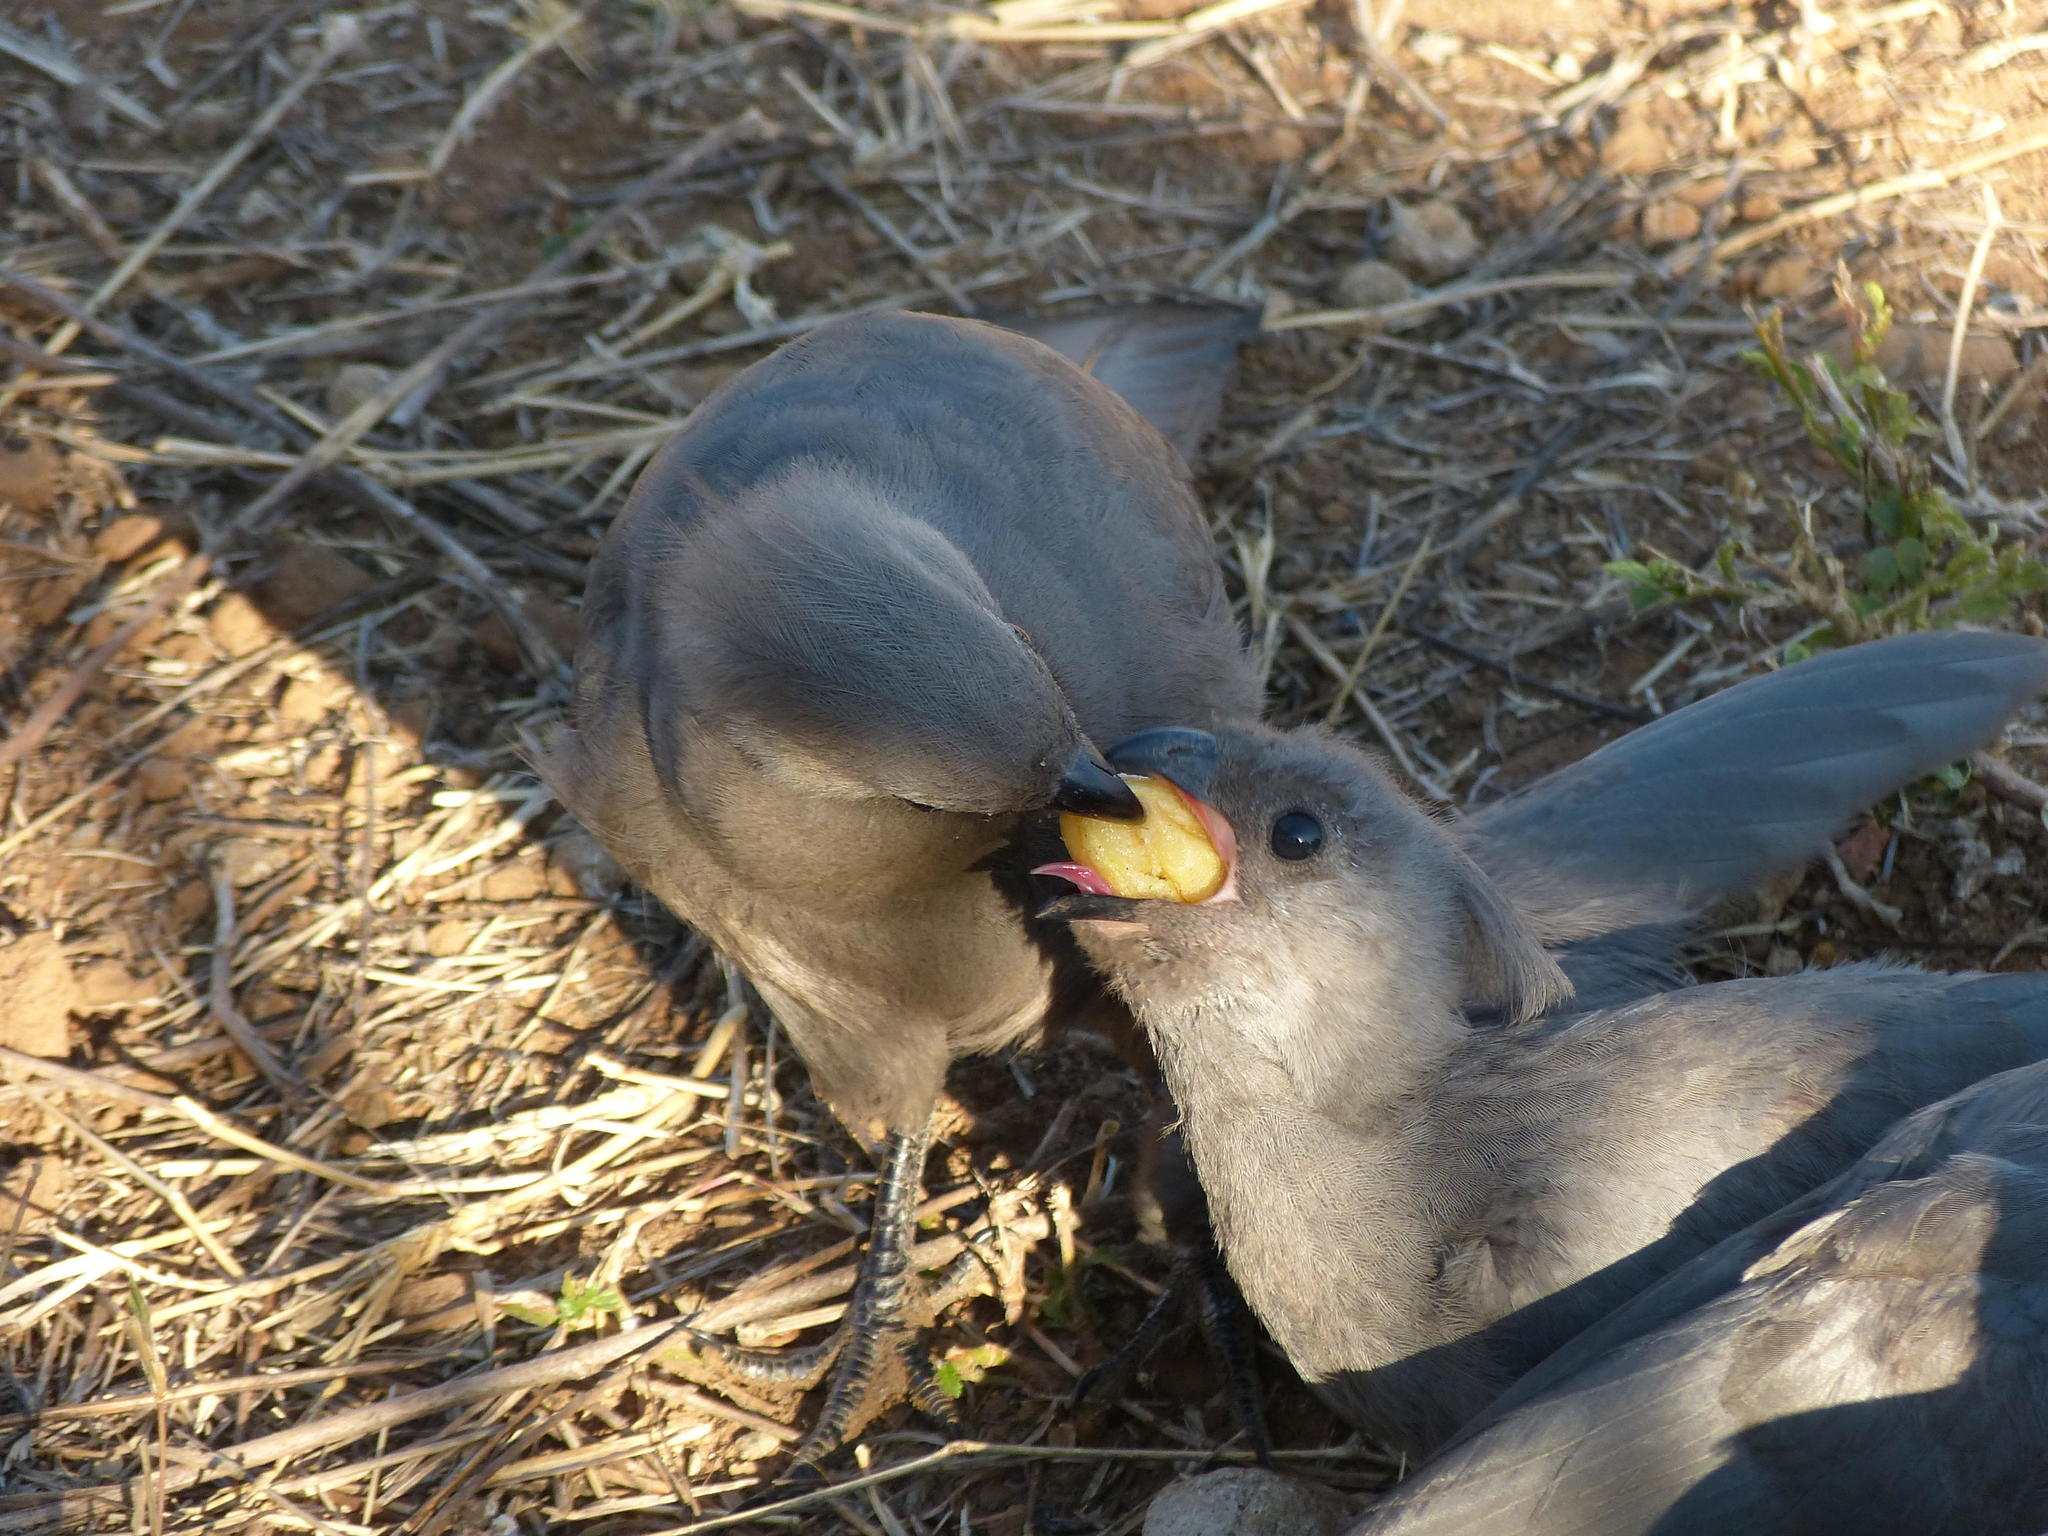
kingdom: Animalia
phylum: Chordata
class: Aves
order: Musophagiformes
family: Musophagidae
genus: Corythaixoides
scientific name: Corythaixoides concolor
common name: Grey go-away-bird
